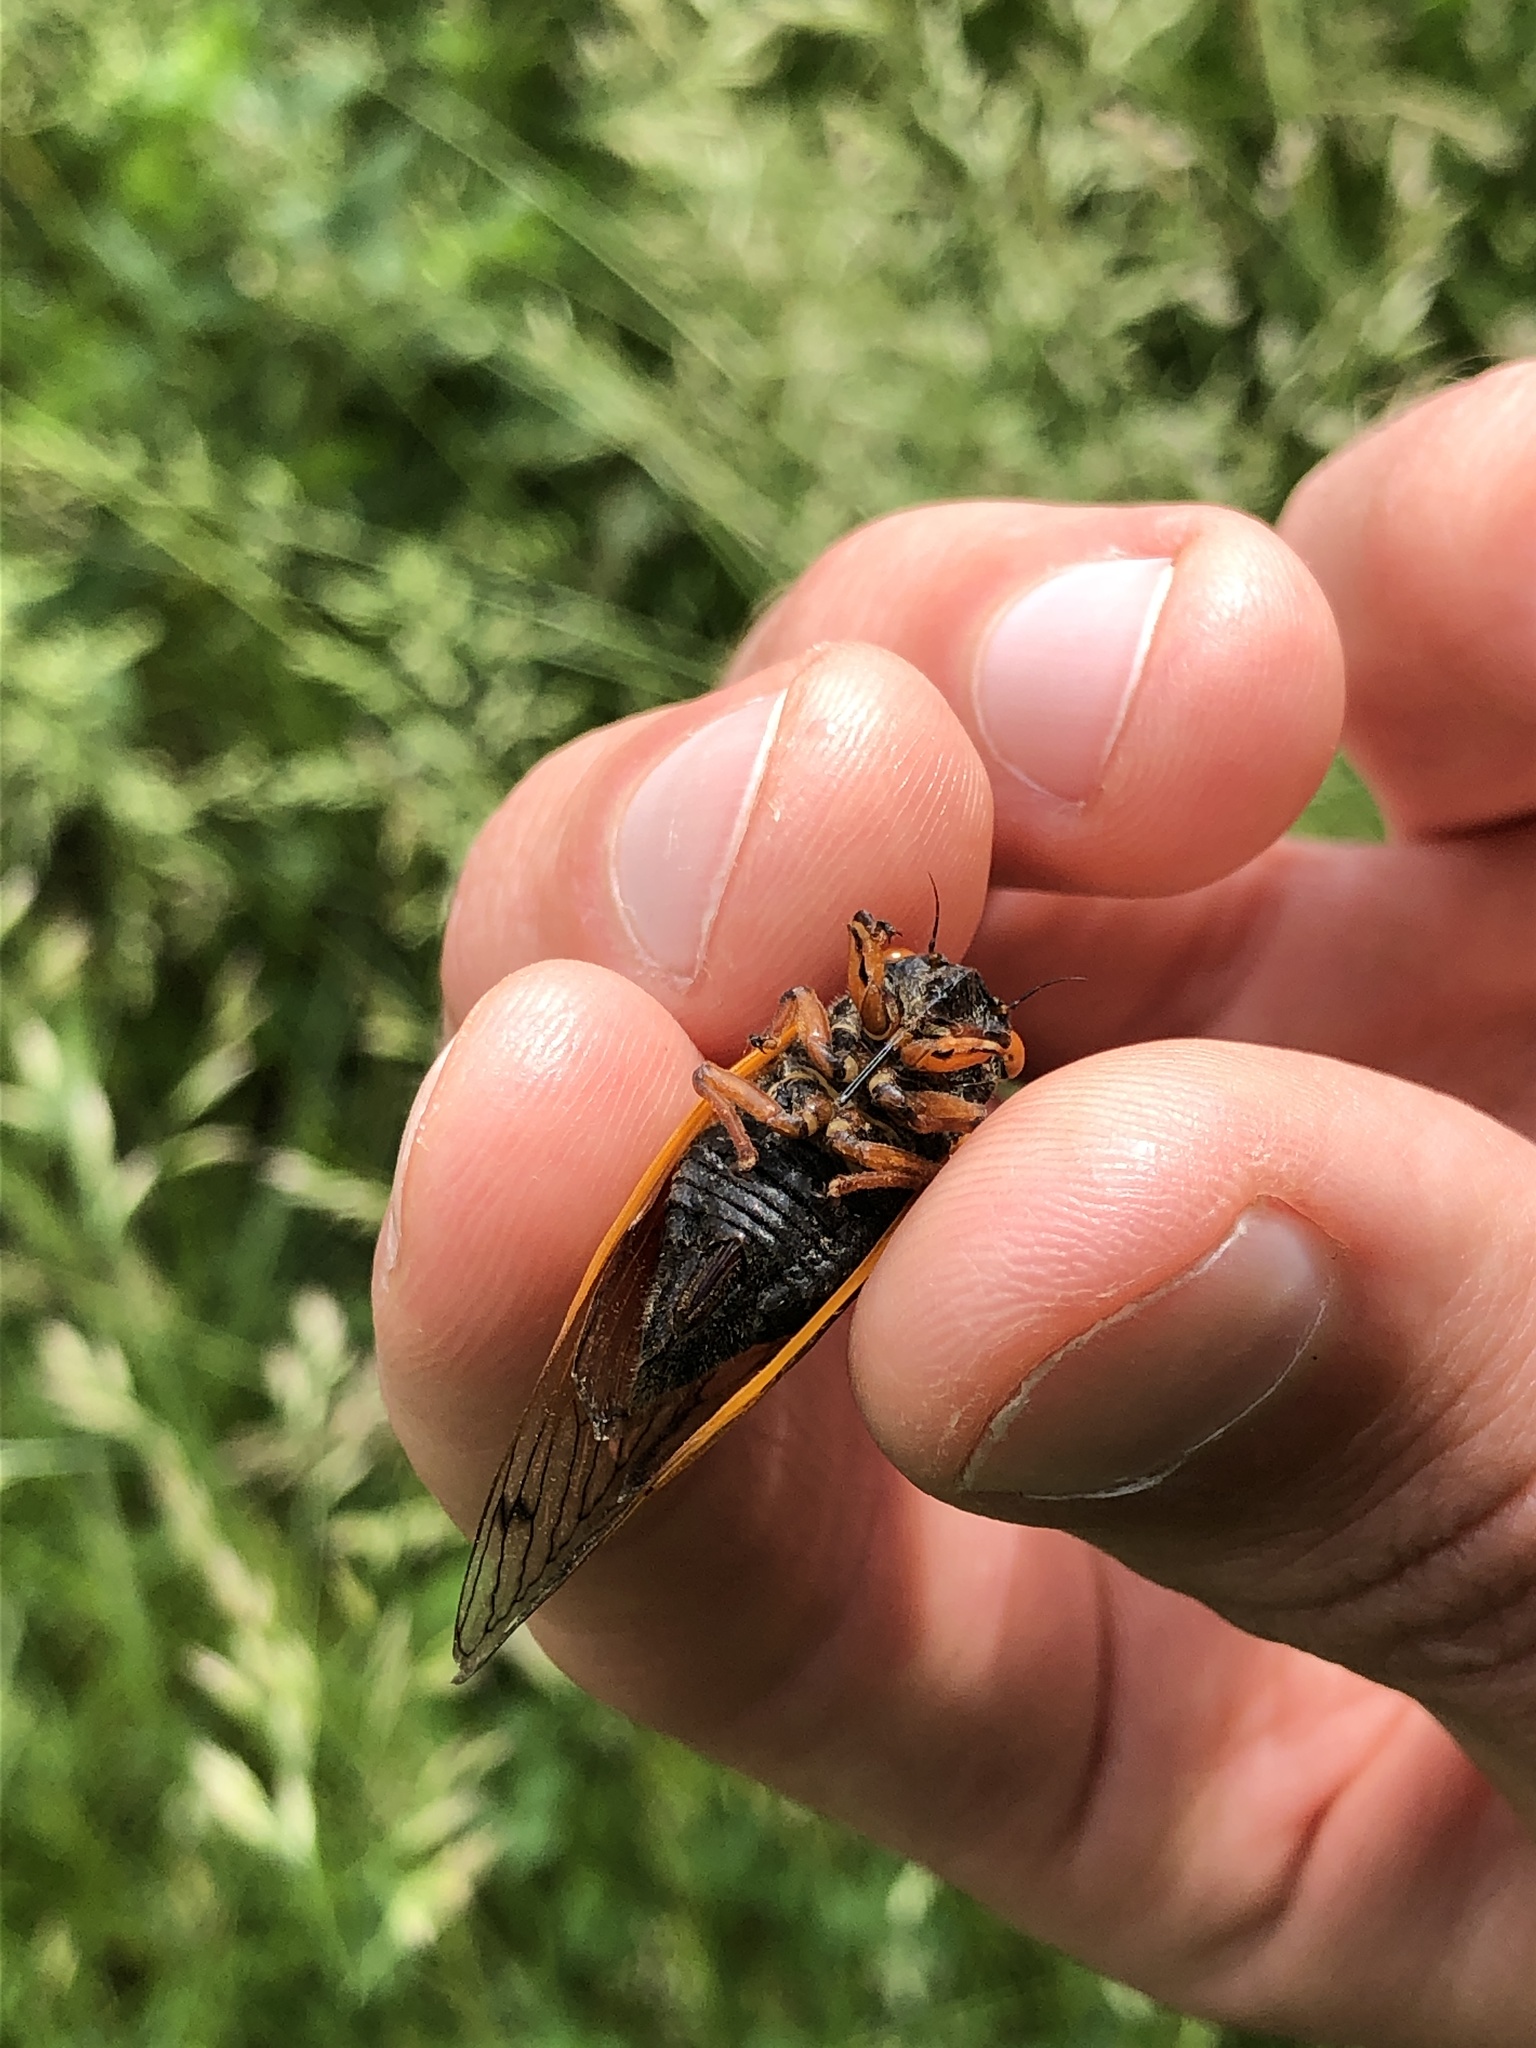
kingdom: Animalia
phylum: Arthropoda
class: Insecta
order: Hemiptera
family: Cicadidae
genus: Magicicada
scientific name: Magicicada cassini
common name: Cassin's 17-year cicada
